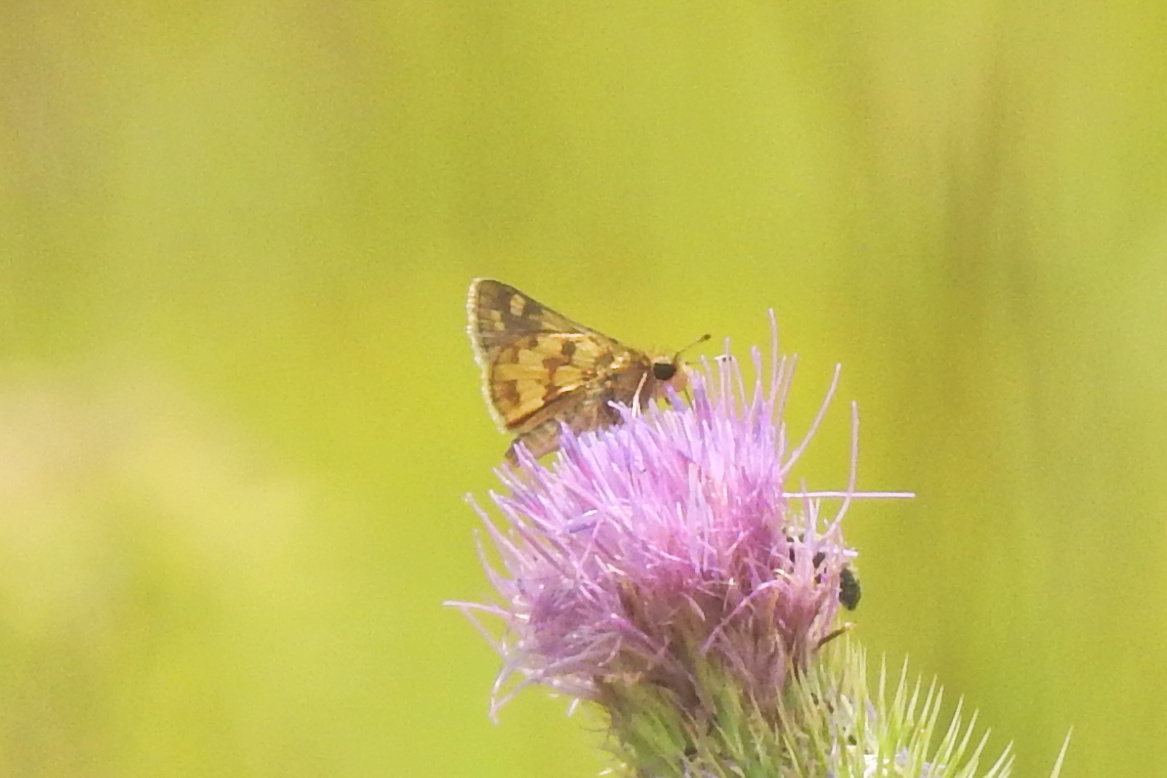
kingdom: Animalia
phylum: Arthropoda
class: Insecta
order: Lepidoptera
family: Hesperiidae
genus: Polites
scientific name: Polites coras
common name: Peck's skipper
